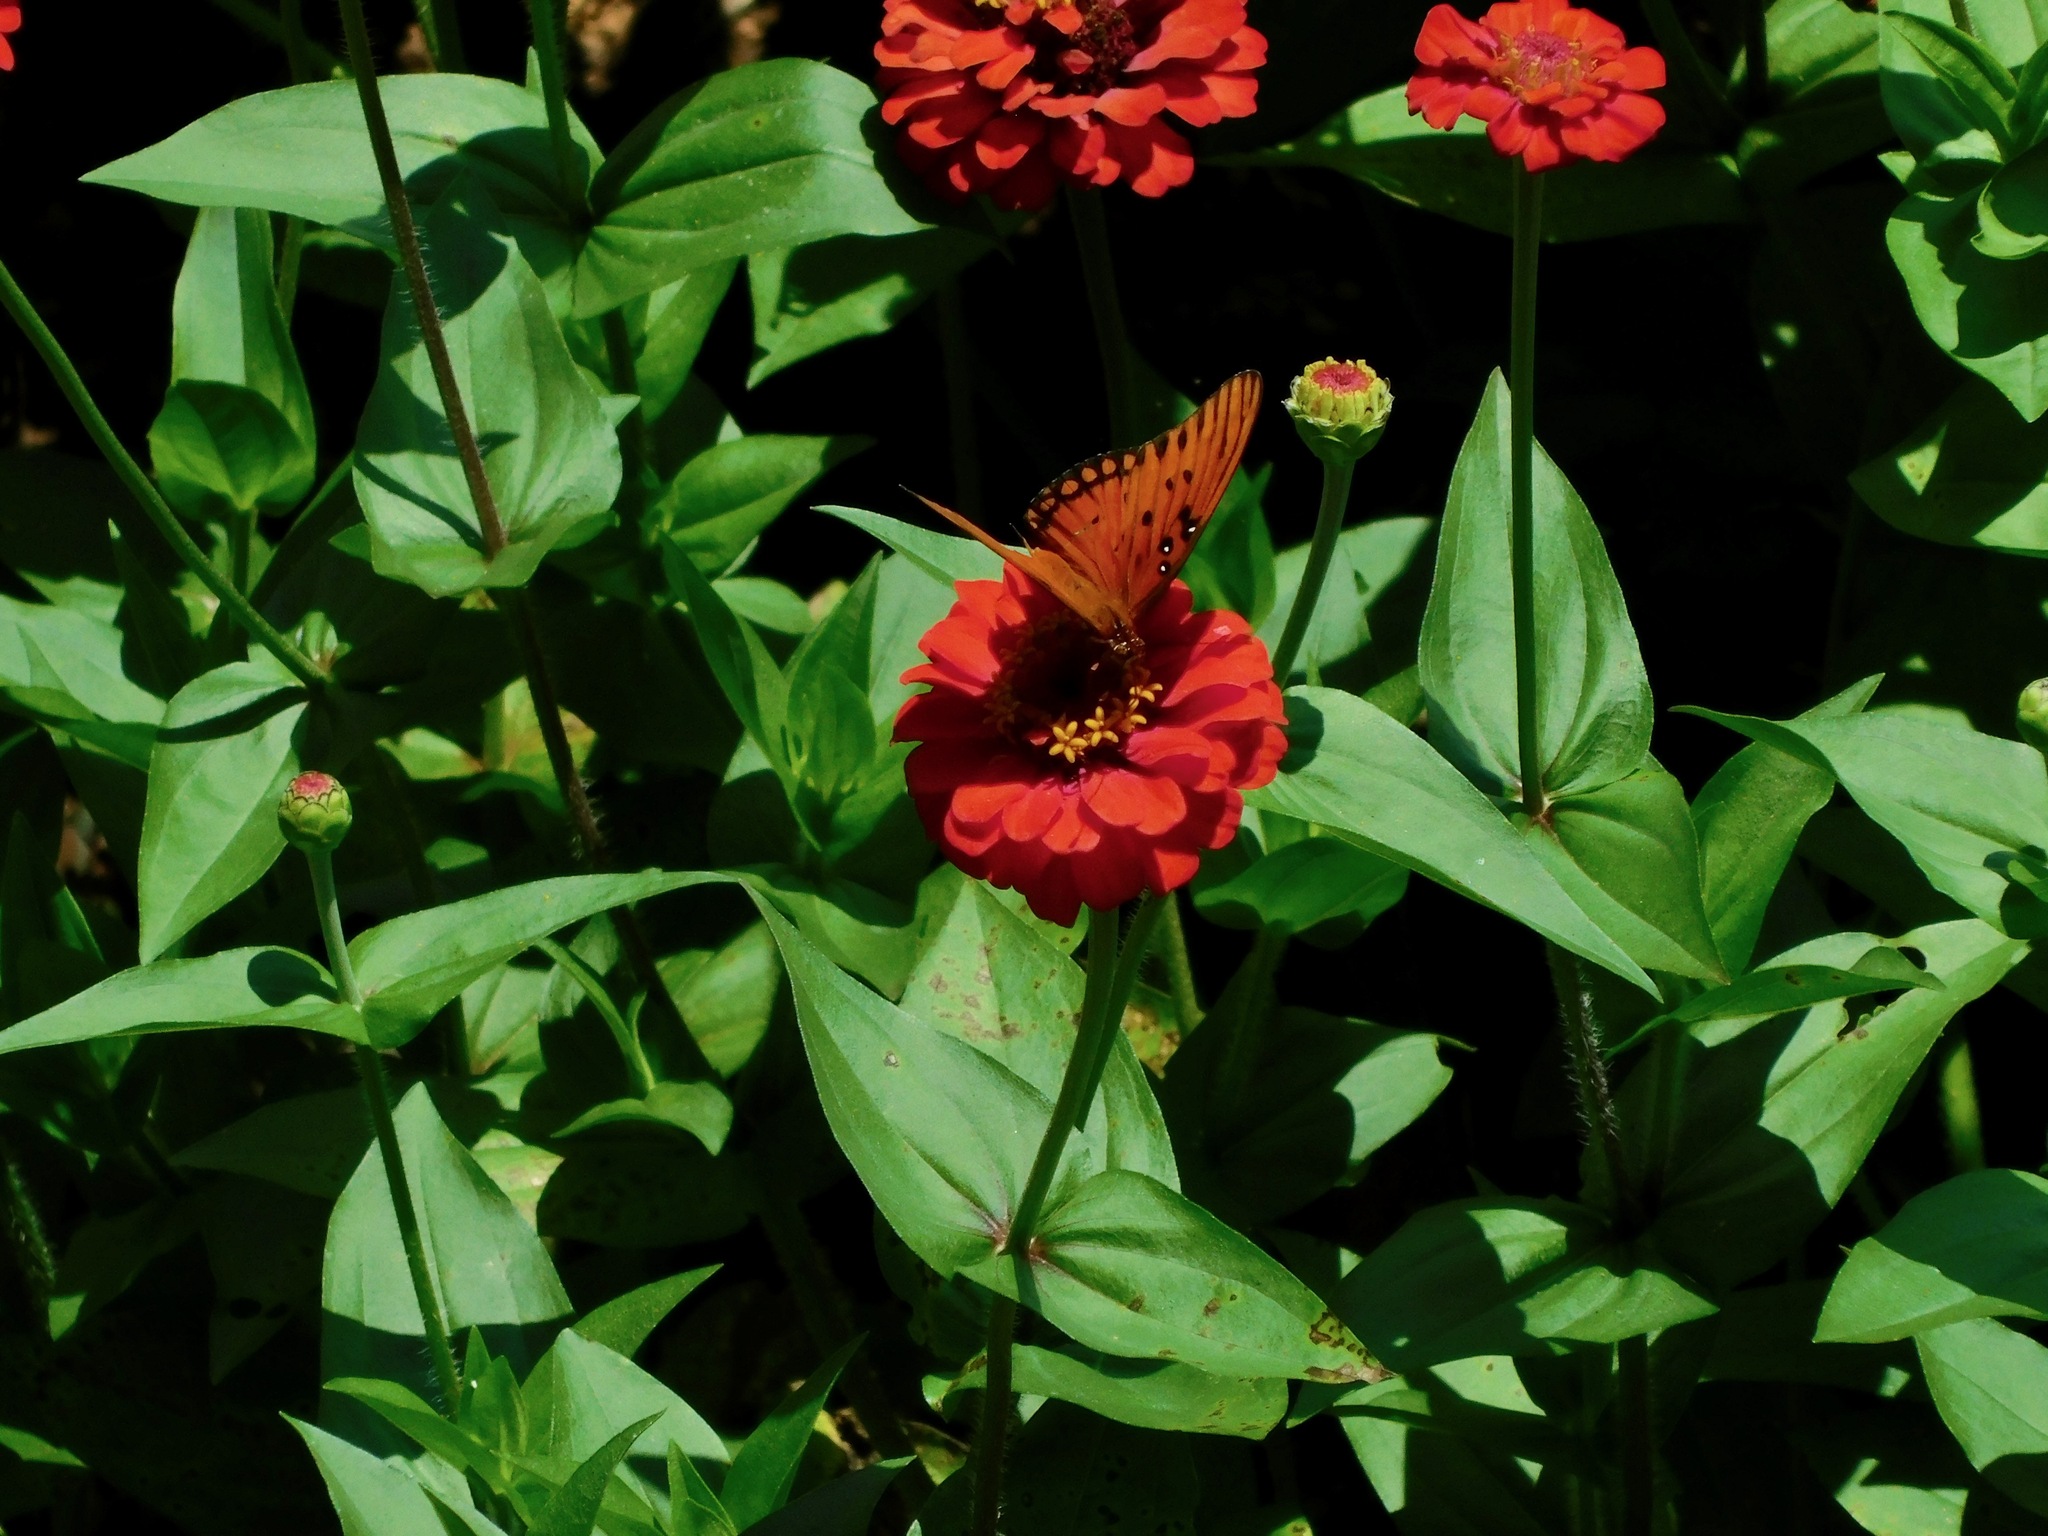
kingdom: Animalia
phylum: Arthropoda
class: Insecta
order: Lepidoptera
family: Nymphalidae
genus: Dione
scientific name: Dione vanillae
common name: Gulf fritillary
